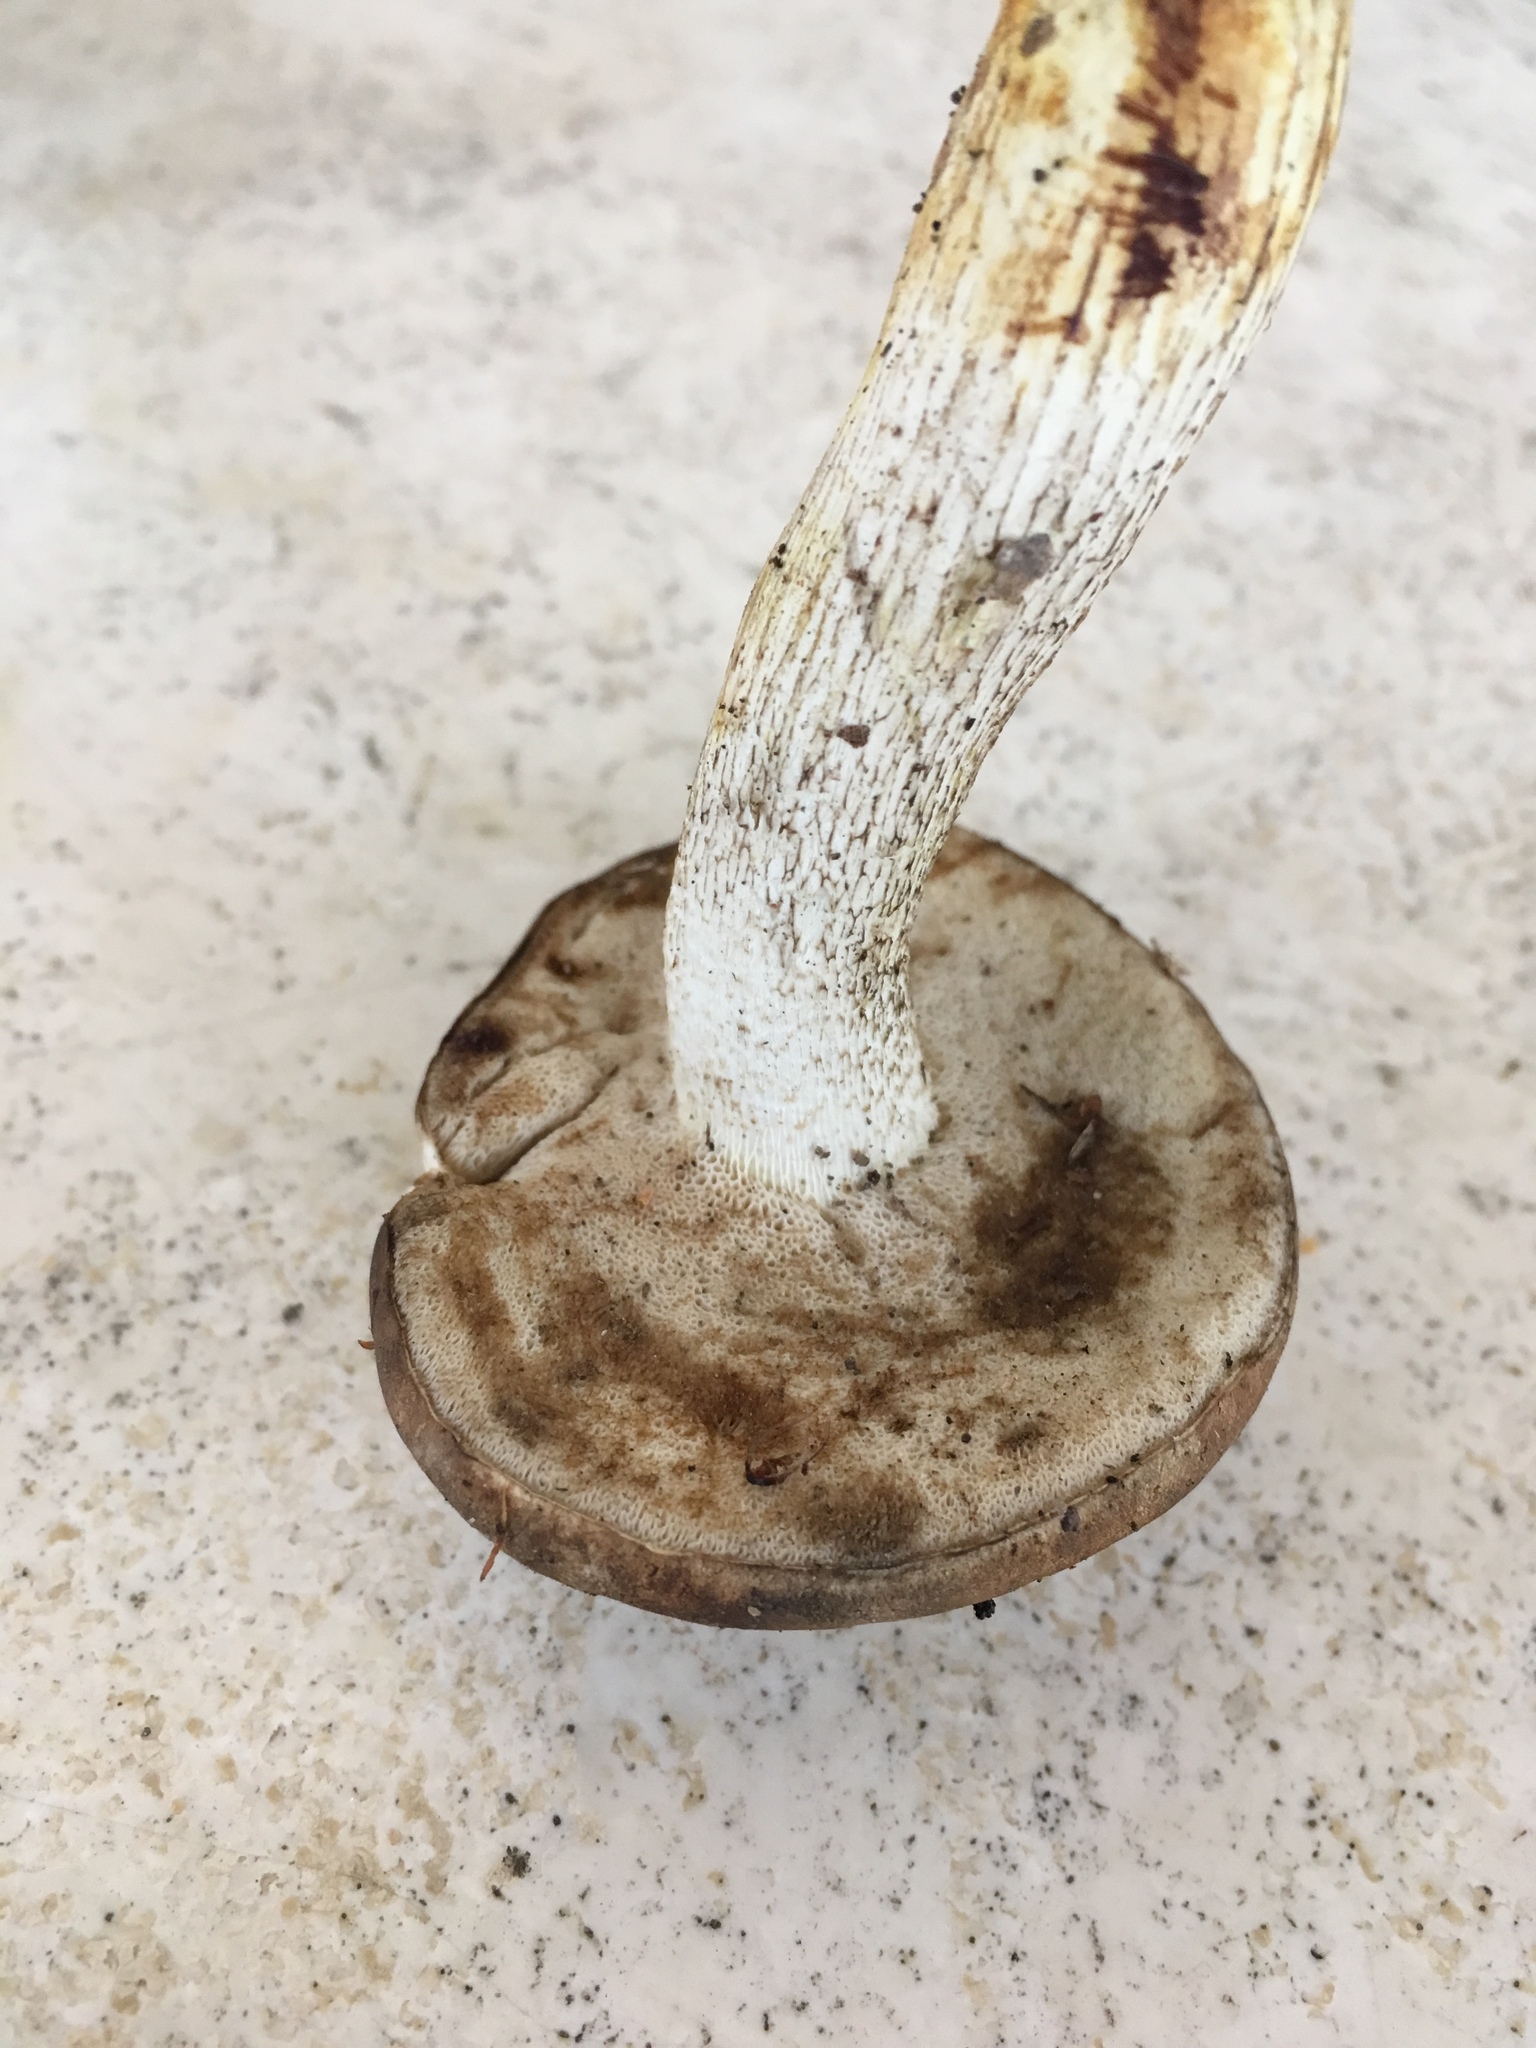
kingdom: Fungi
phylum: Basidiomycota
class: Agaricomycetes
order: Boletales
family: Boletaceae
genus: Retiboletus
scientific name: Retiboletus griseus
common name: Grey bolete
